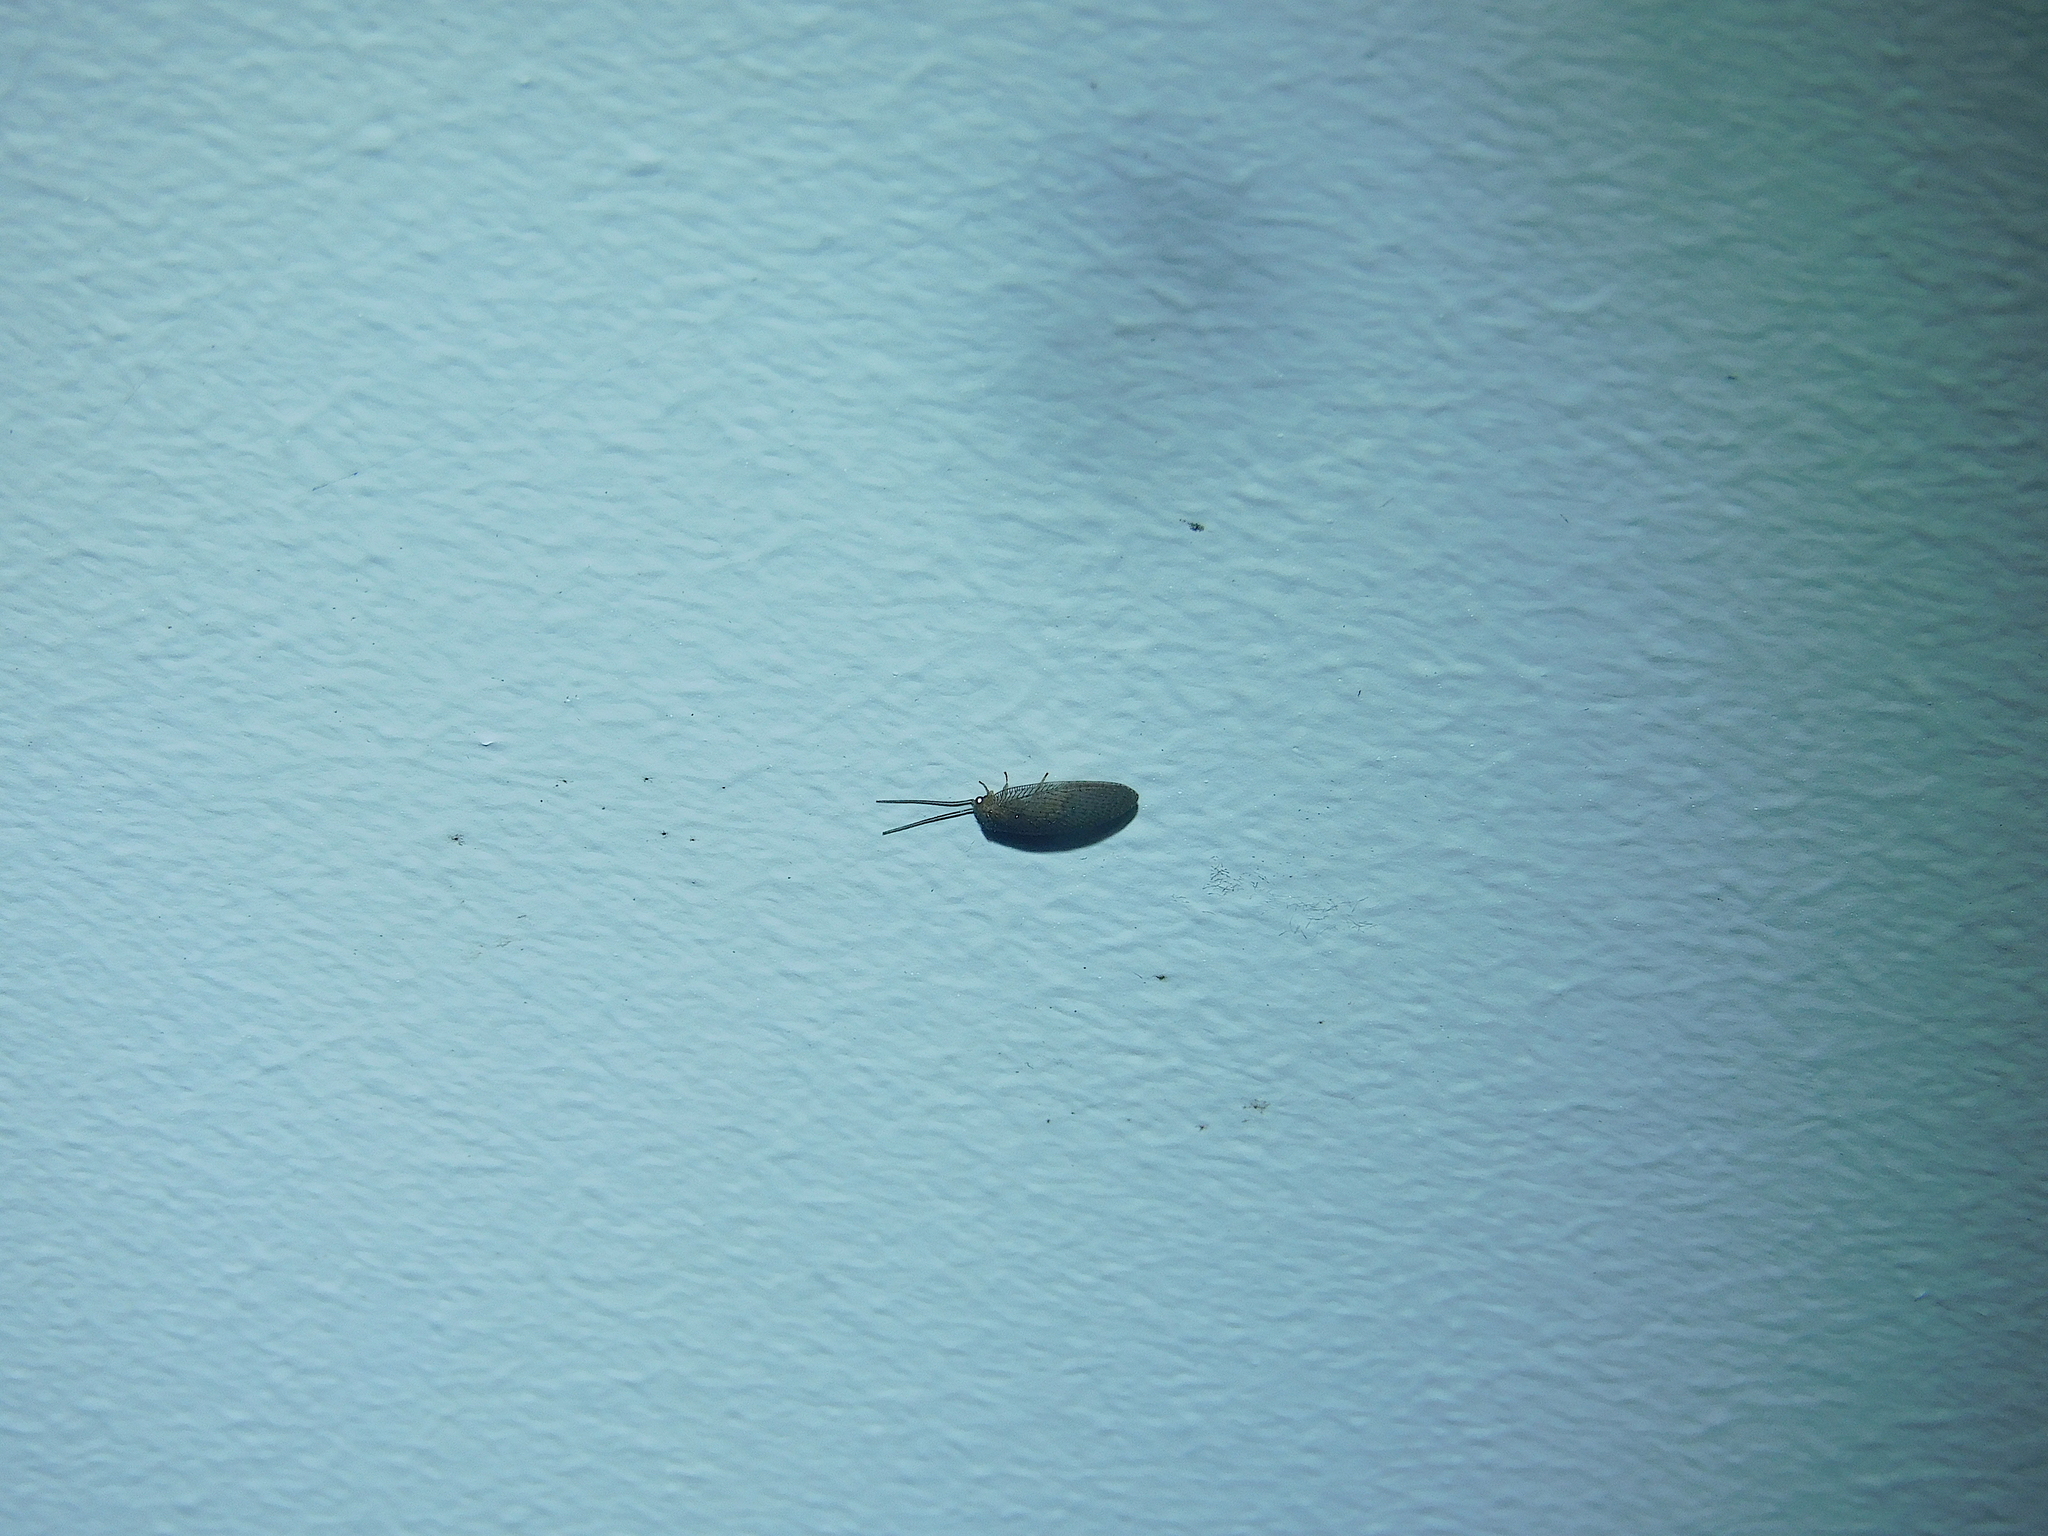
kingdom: Animalia
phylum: Arthropoda
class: Insecta
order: Neuroptera
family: Hemerobiidae
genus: Psychobiella
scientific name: Psychobiella sordida
